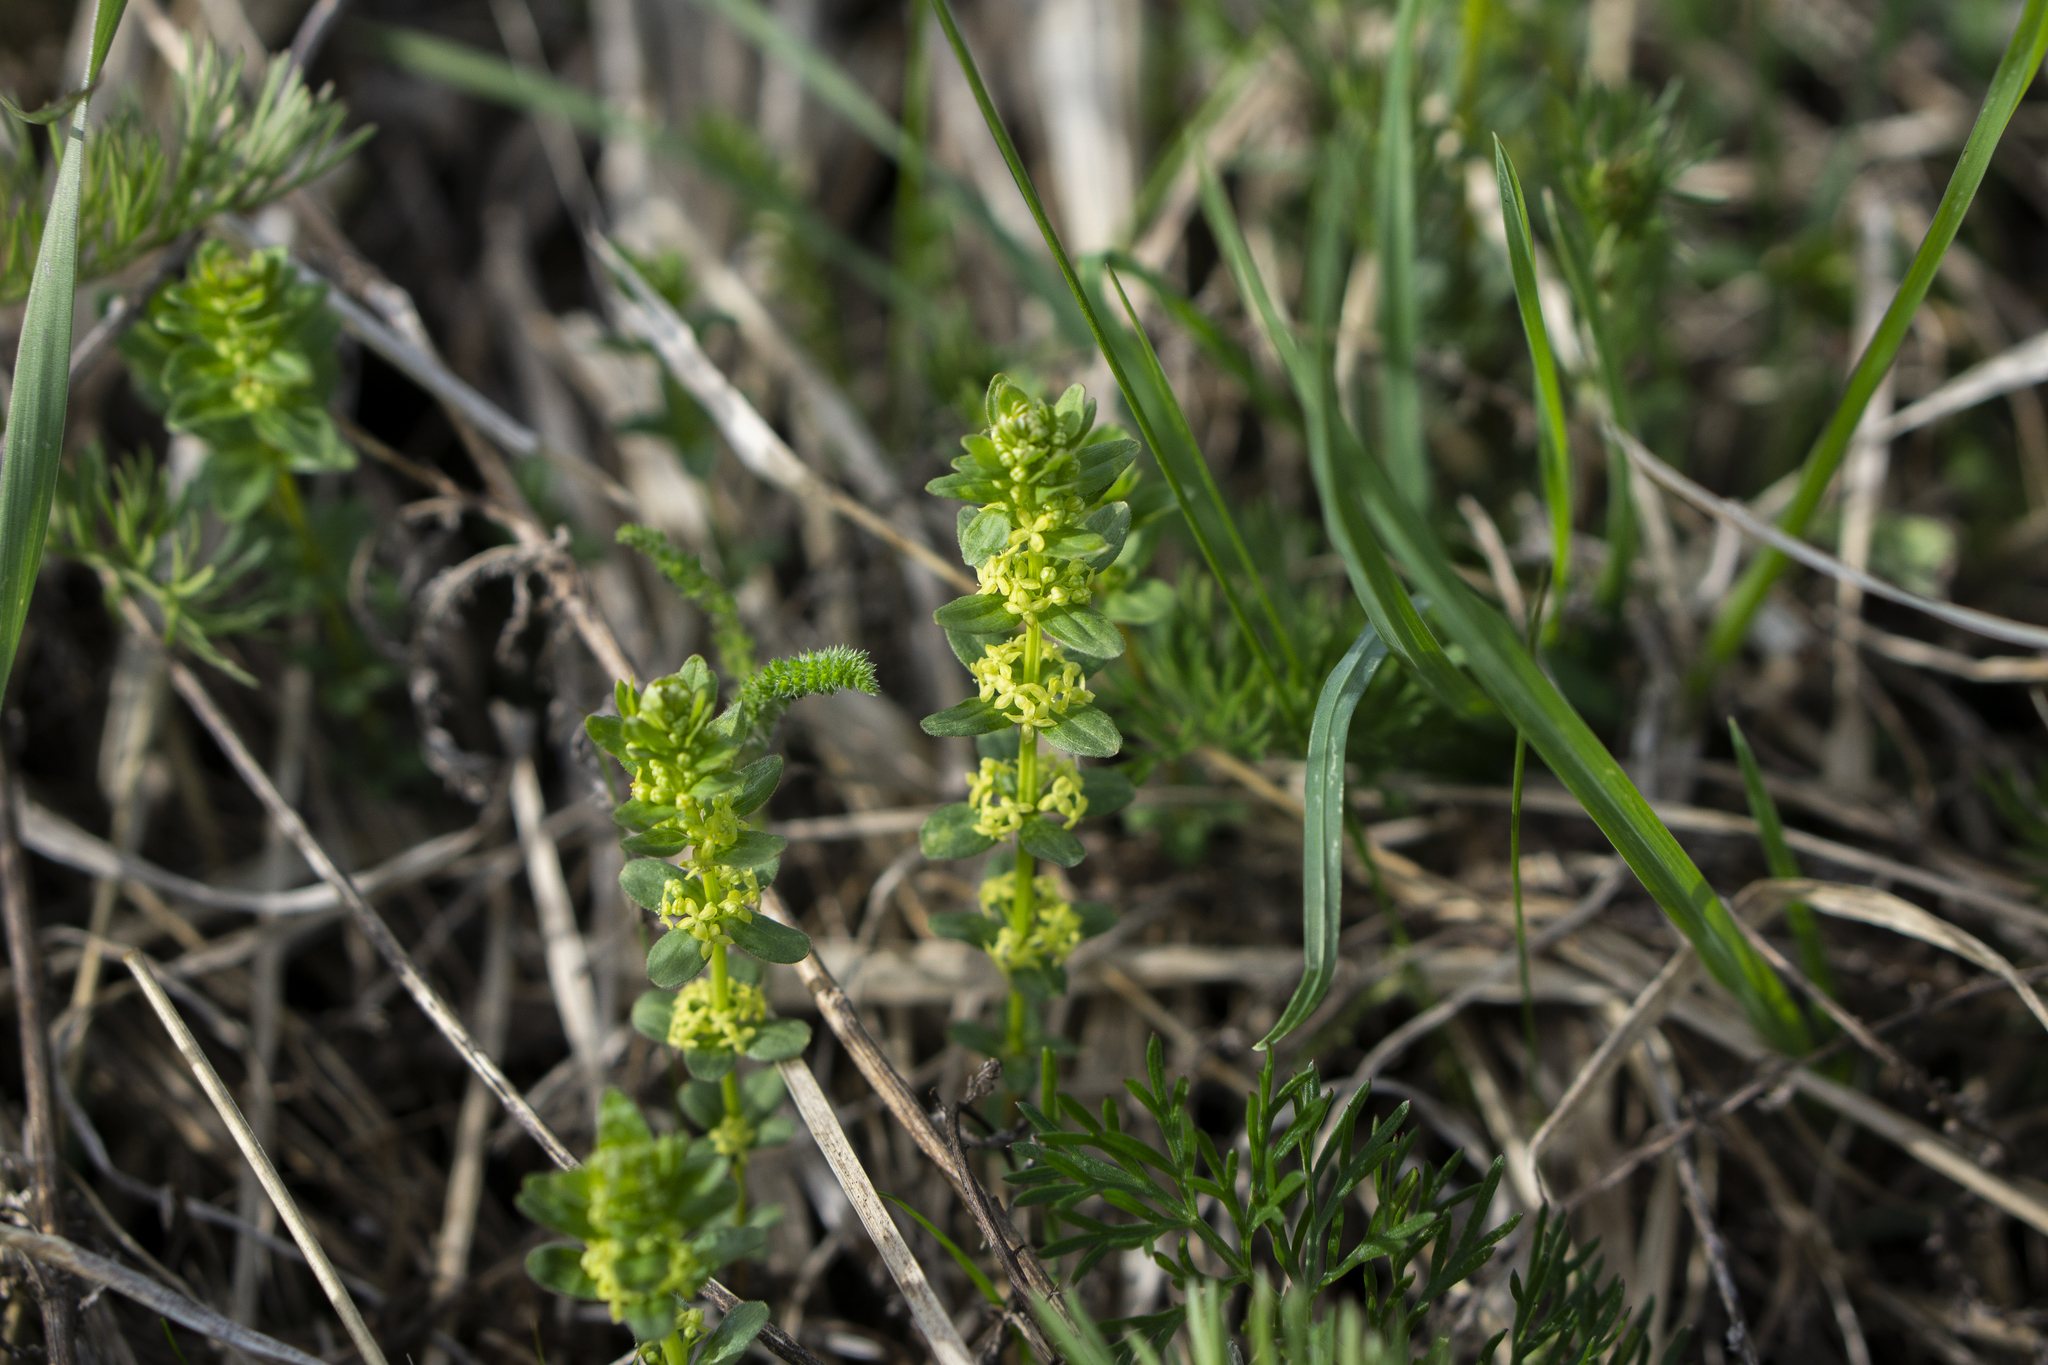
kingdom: Plantae
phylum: Tracheophyta
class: Magnoliopsida
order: Gentianales
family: Rubiaceae
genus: Cruciata
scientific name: Cruciata glabra
